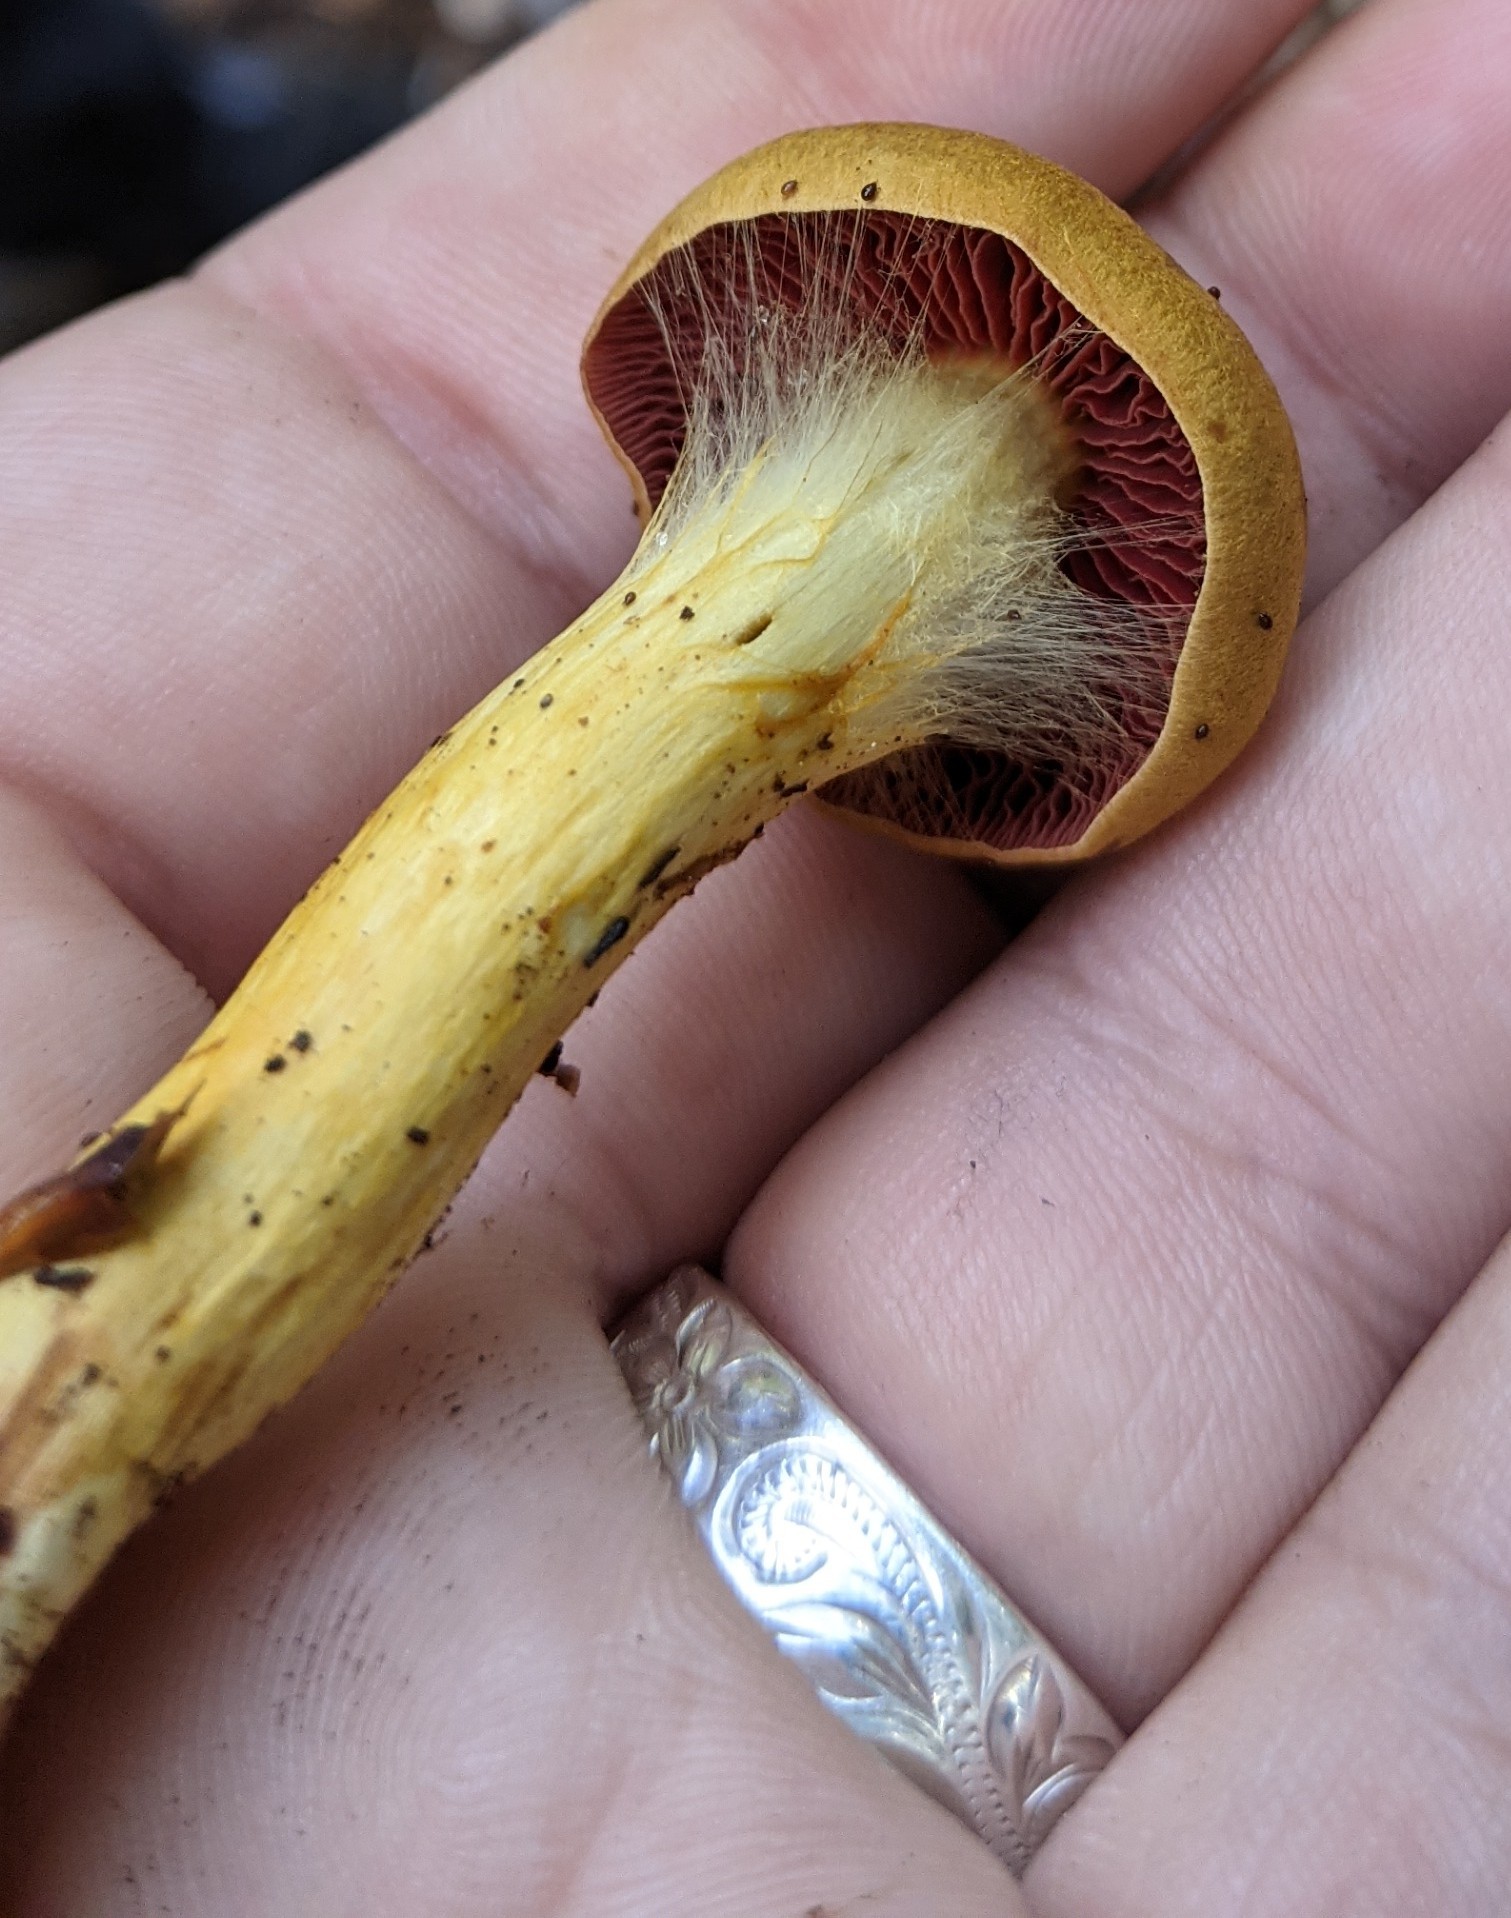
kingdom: Fungi
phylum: Basidiomycota
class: Agaricomycetes
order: Agaricales
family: Cortinariaceae
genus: Cortinarius
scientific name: Cortinarius semisanguineus
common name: Surprise webcap
